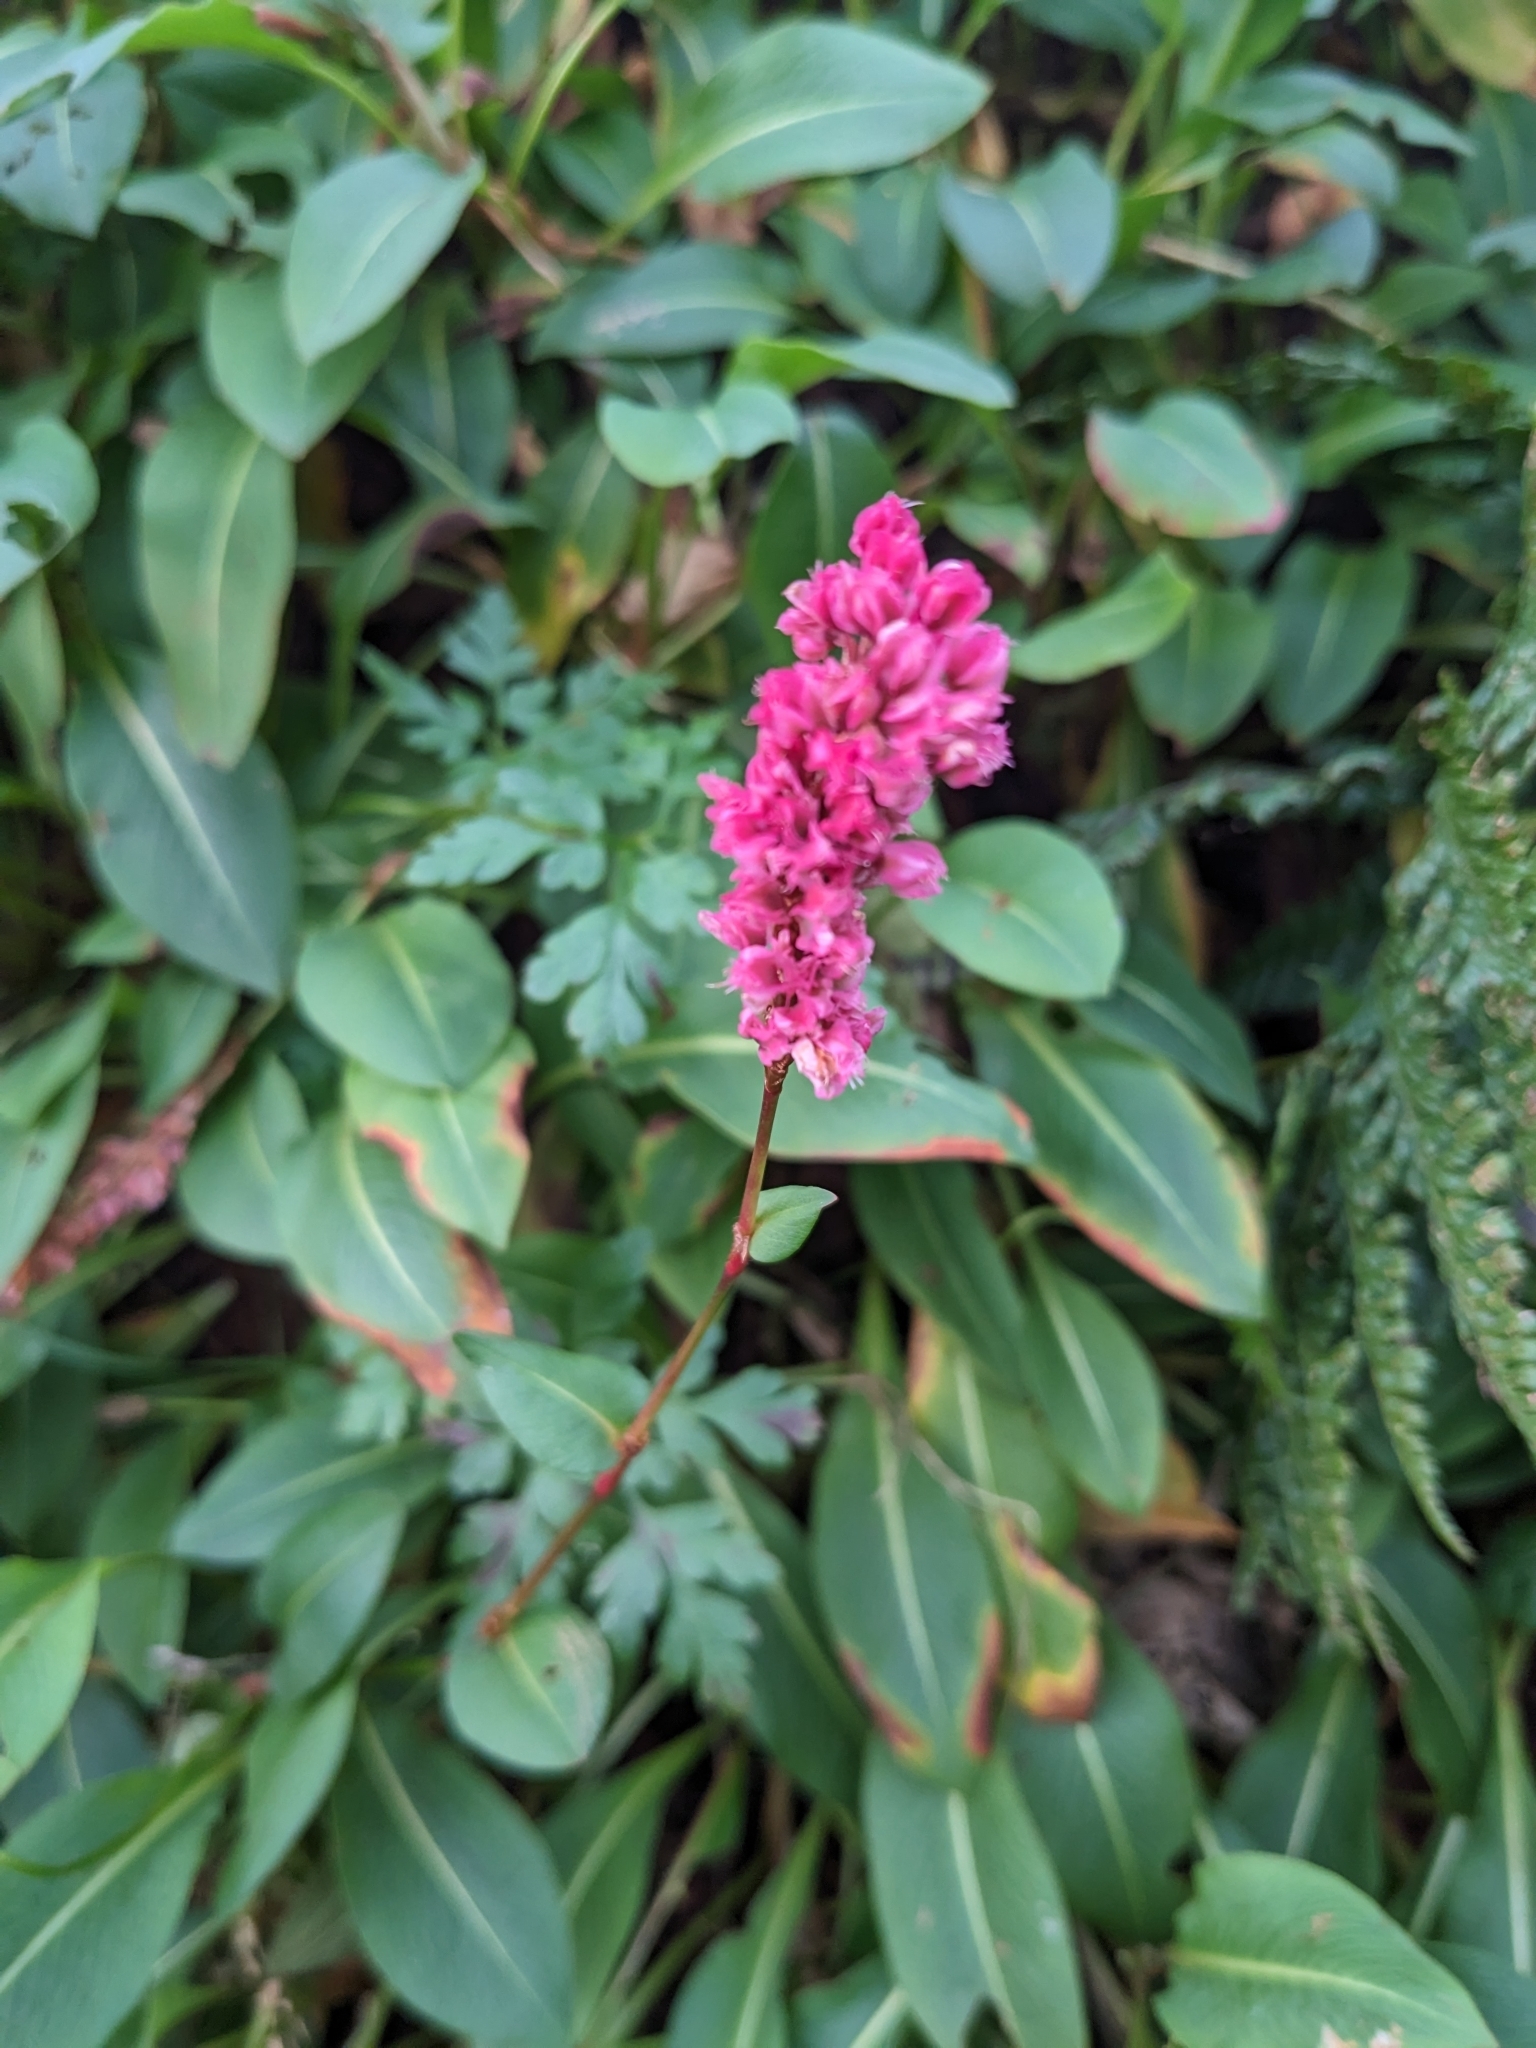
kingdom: Plantae
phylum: Tracheophyta
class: Magnoliopsida
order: Caryophyllales
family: Polygonaceae
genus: Bistorta
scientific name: Bistorta affinis
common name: Himalayan fleeceflower
